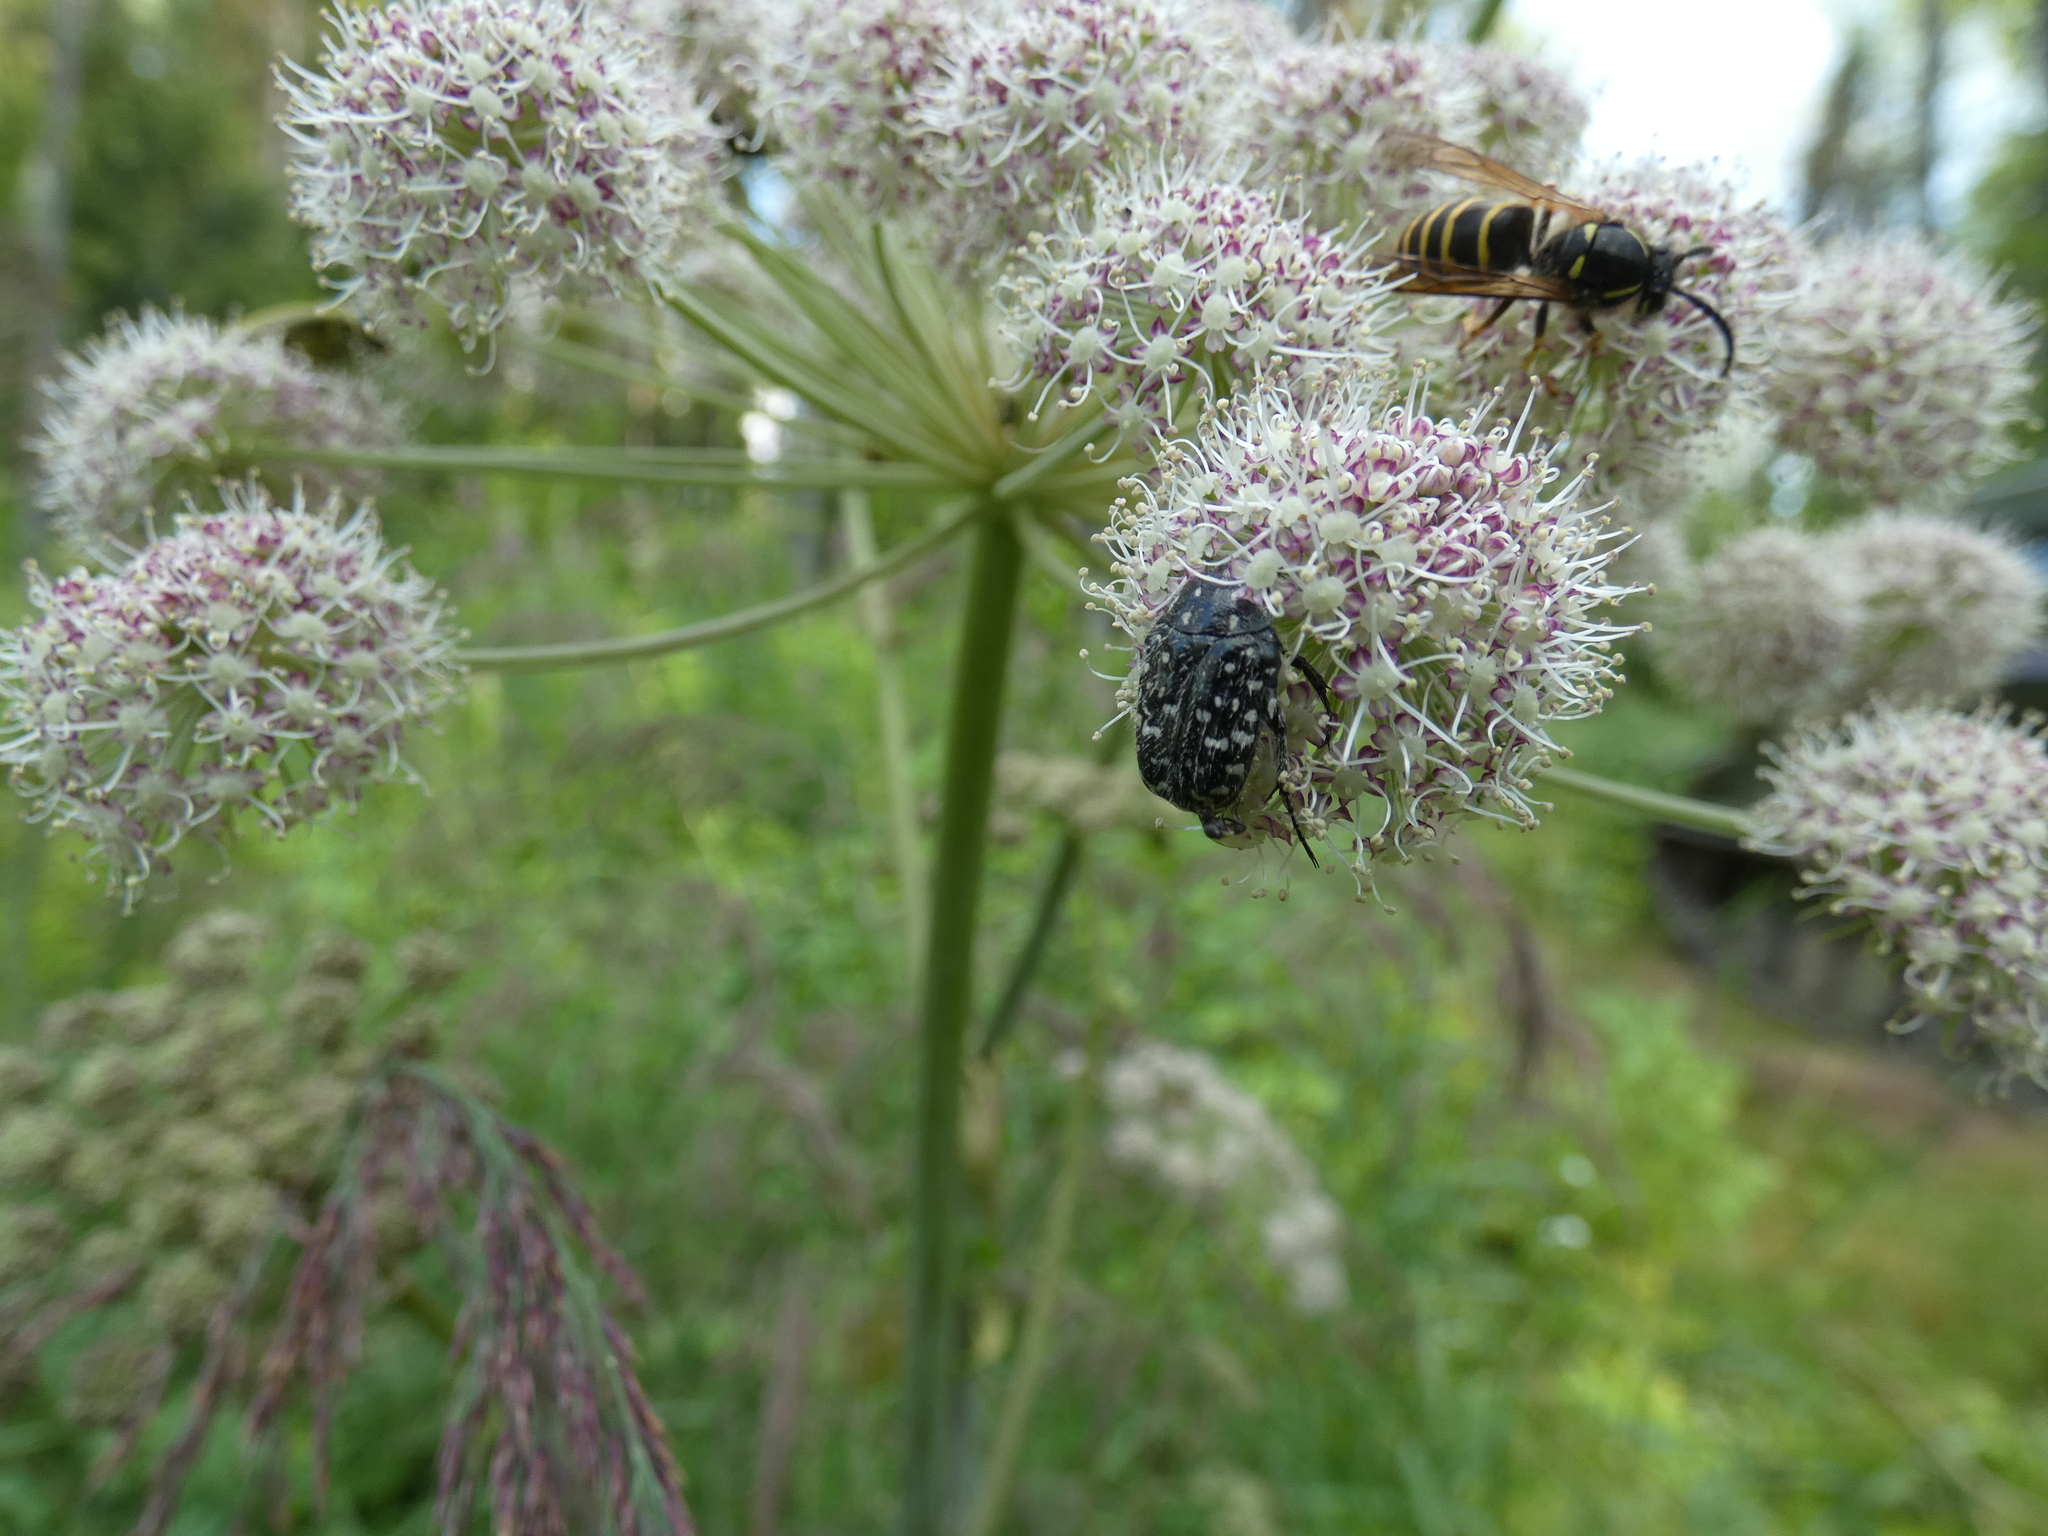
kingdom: Animalia
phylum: Arthropoda
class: Insecta
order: Coleoptera
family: Scarabaeidae
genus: Oxythyrea
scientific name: Oxythyrea funesta
